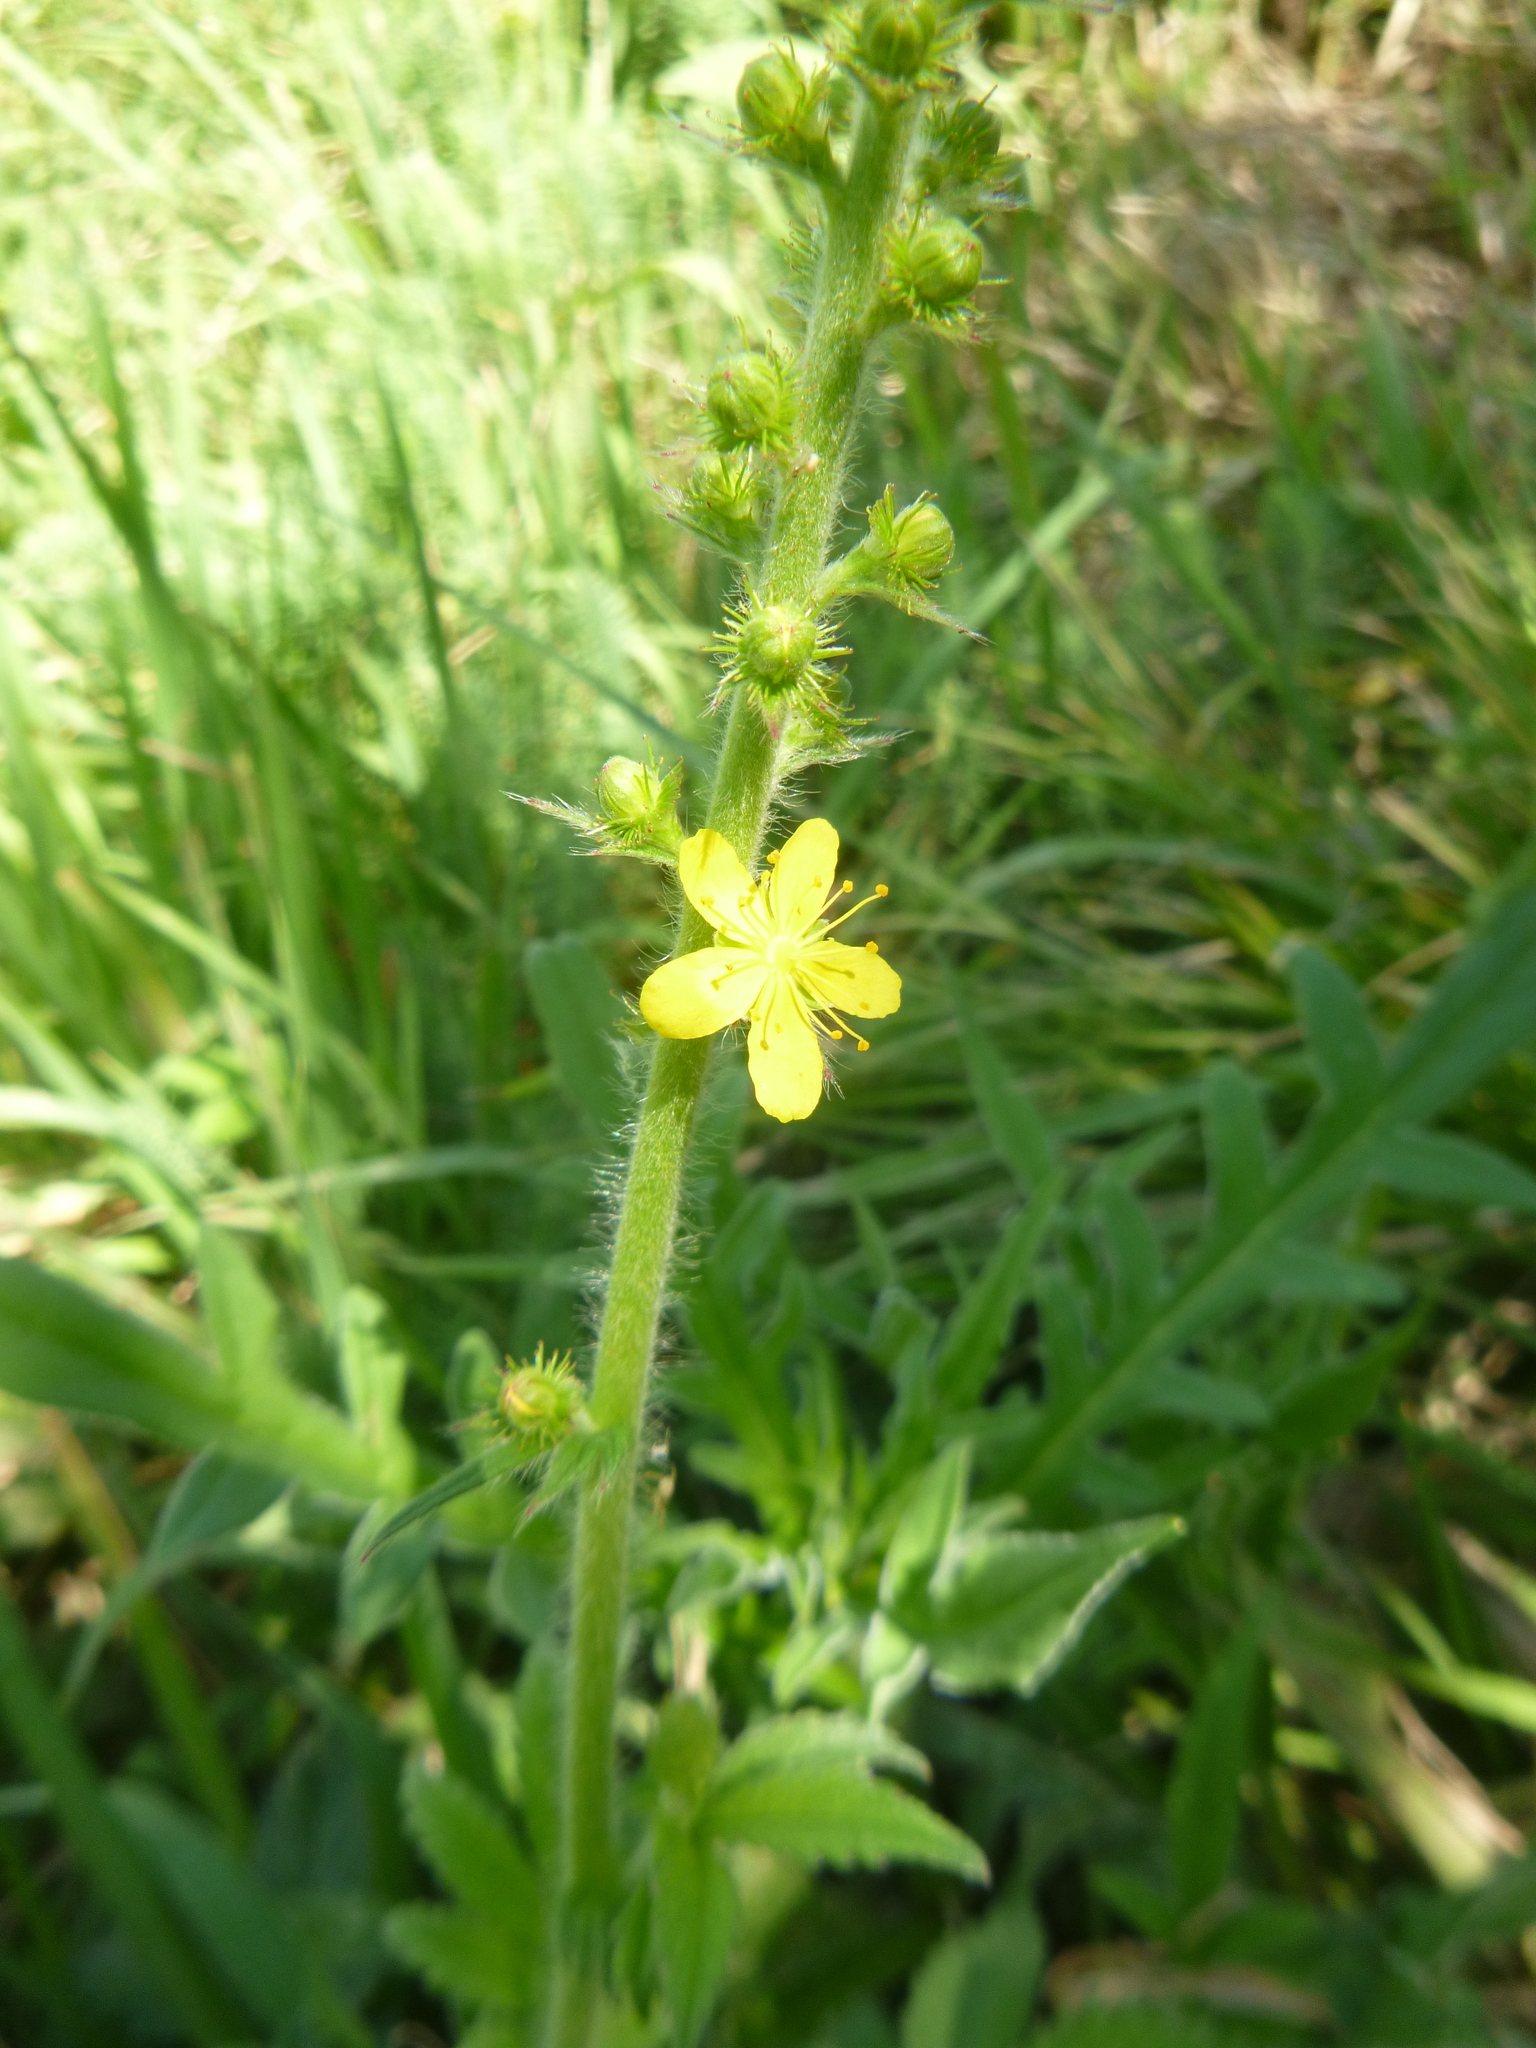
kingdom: Plantae
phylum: Tracheophyta
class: Magnoliopsida
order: Rosales
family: Rosaceae
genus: Agrimonia
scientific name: Agrimonia eupatoria
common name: Agrimony
